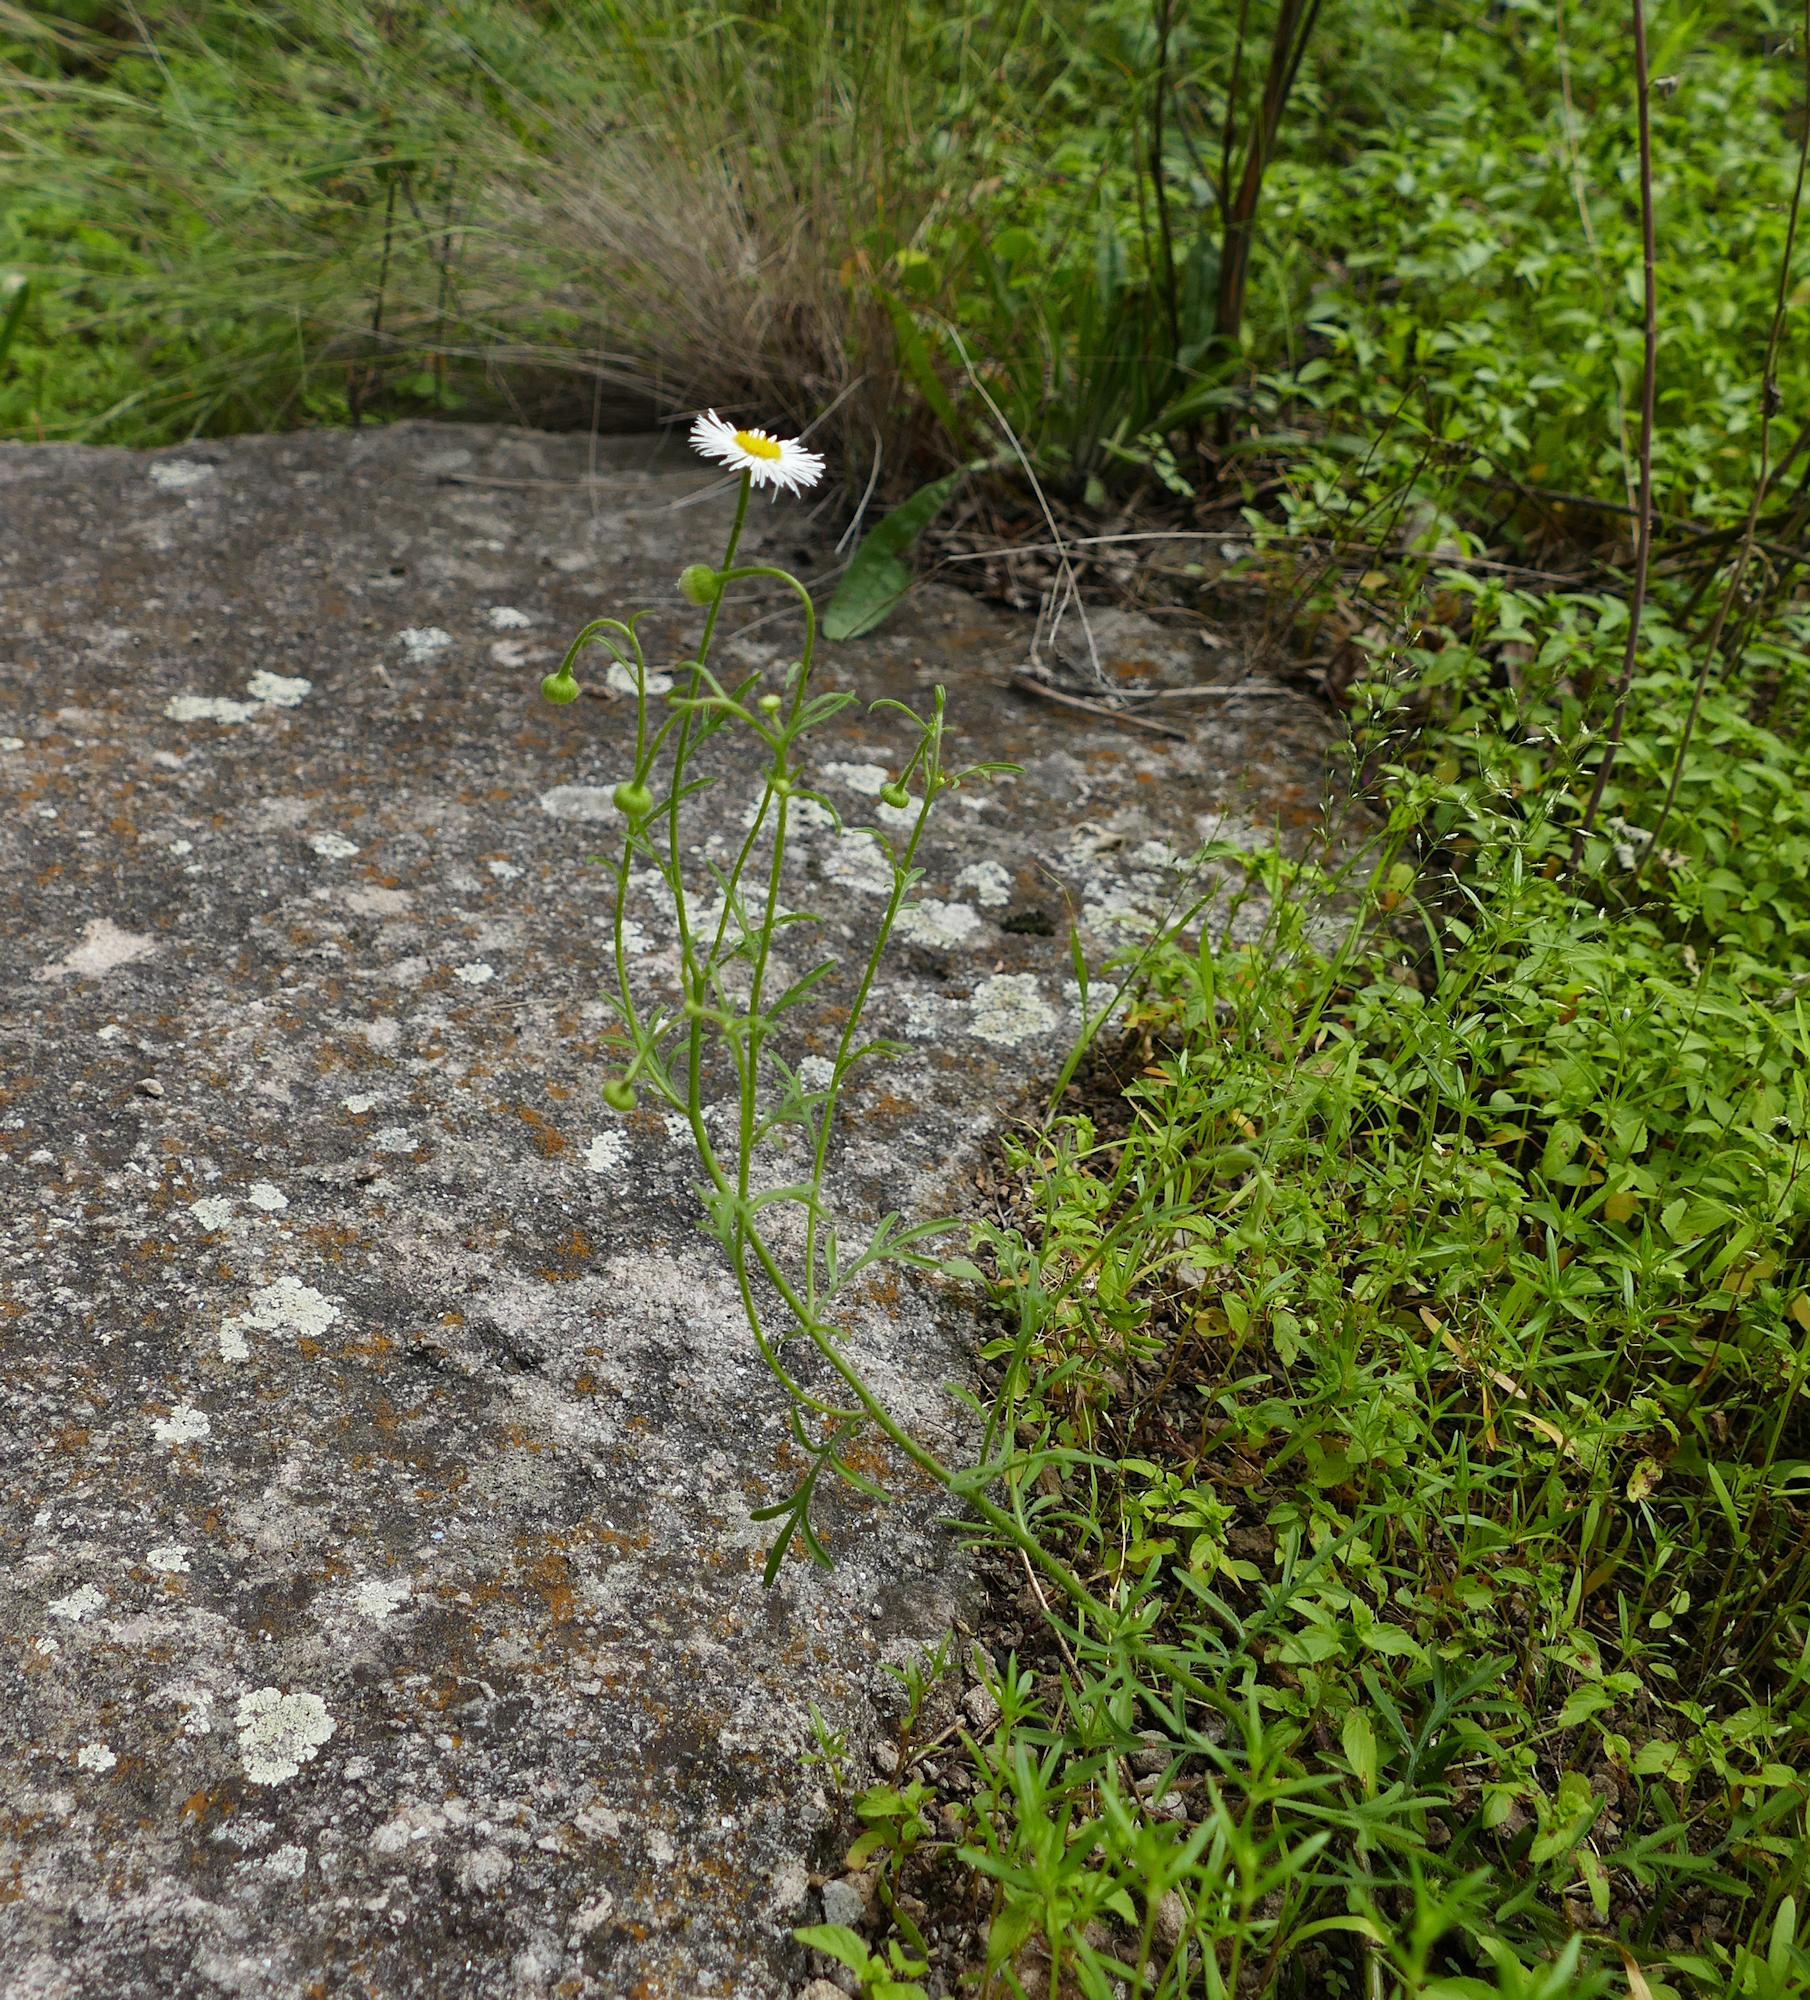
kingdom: Plantae
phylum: Tracheophyta
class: Magnoliopsida
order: Asterales
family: Asteraceae
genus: Erigeron
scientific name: Erigeron neomexicanus
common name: New mexico fleabane
